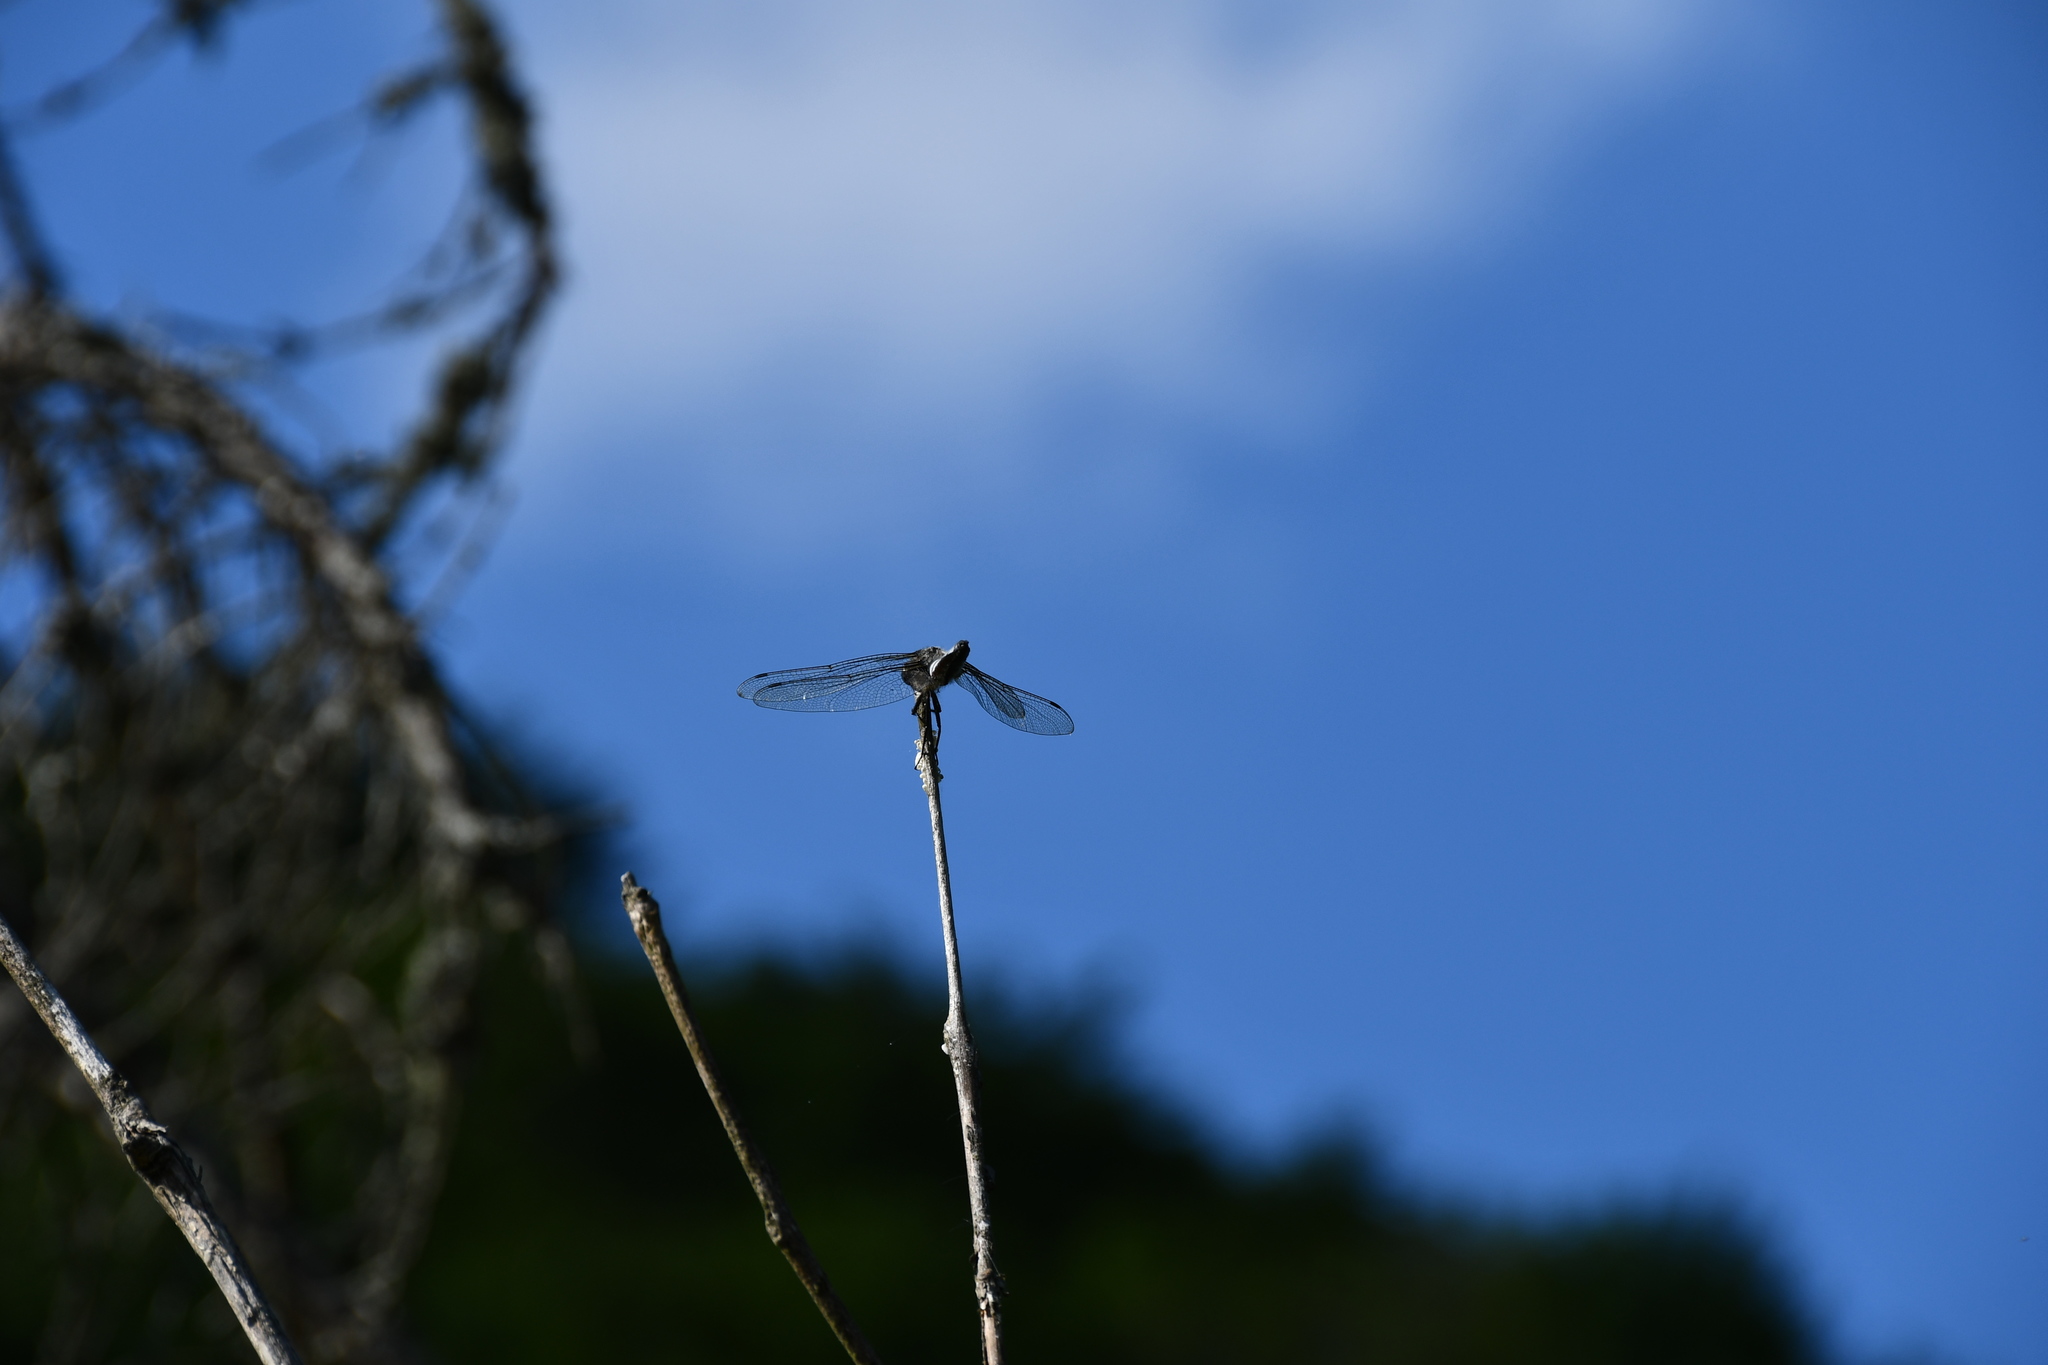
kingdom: Animalia
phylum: Arthropoda
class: Insecta
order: Odonata
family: Libellulidae
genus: Libellula
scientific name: Libellula fulva
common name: Blue chaser
